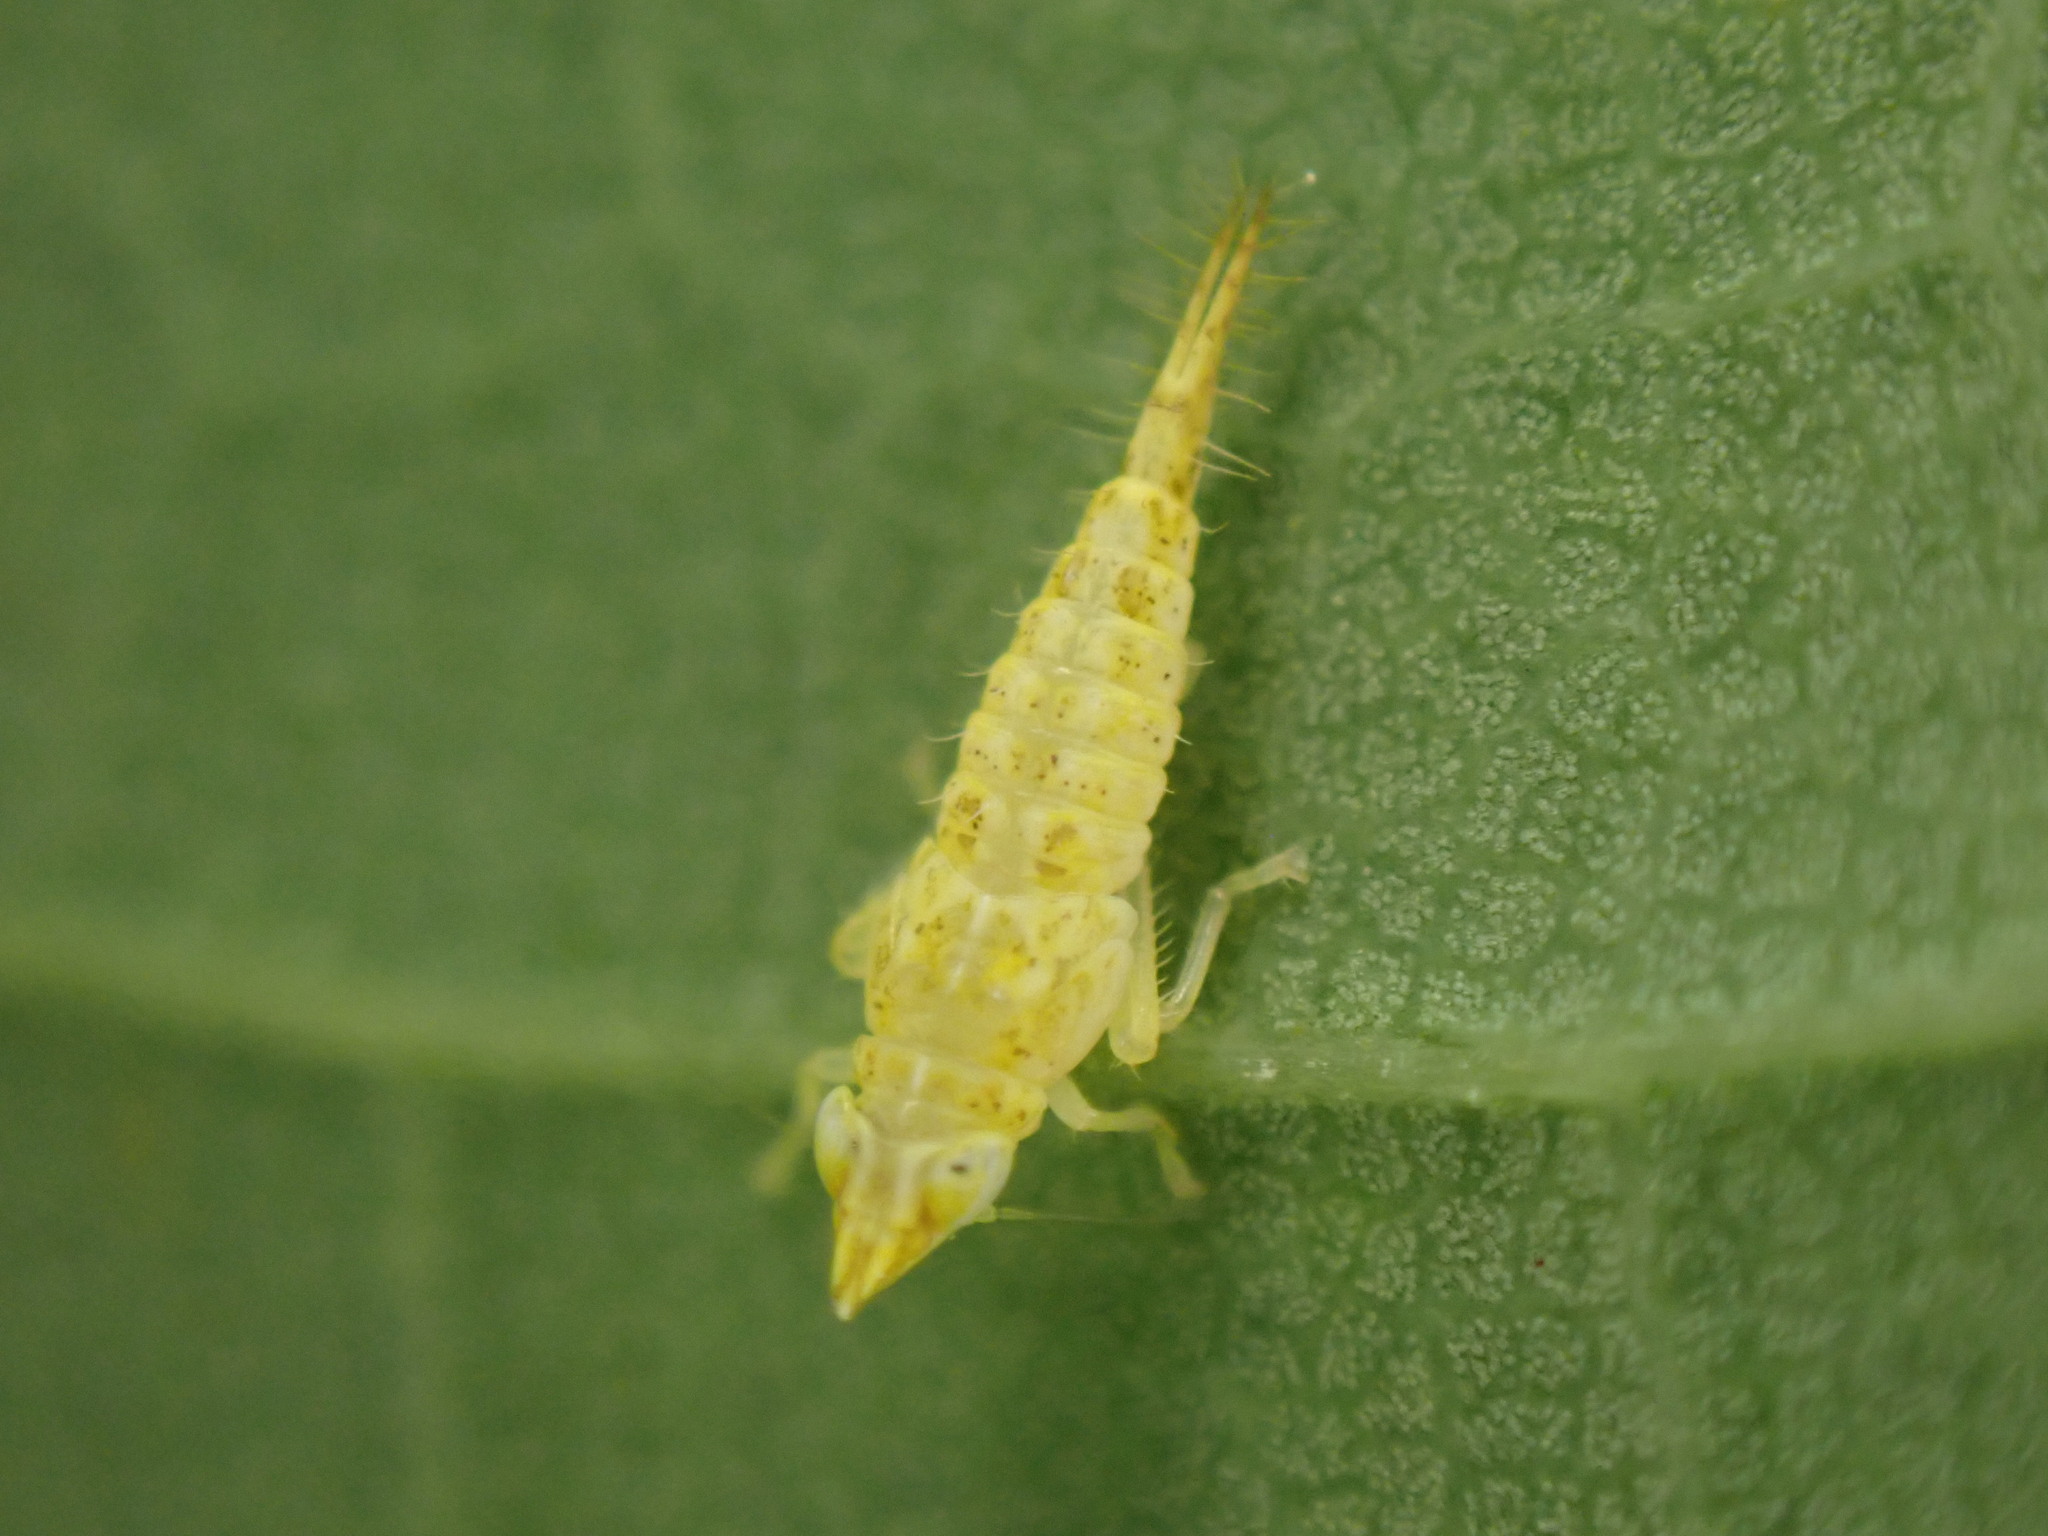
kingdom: Animalia
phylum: Arthropoda
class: Insecta
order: Hemiptera
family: Cicadellidae
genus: Japananus
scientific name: Japananus hyalinus
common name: The japanese maple leafhopper
